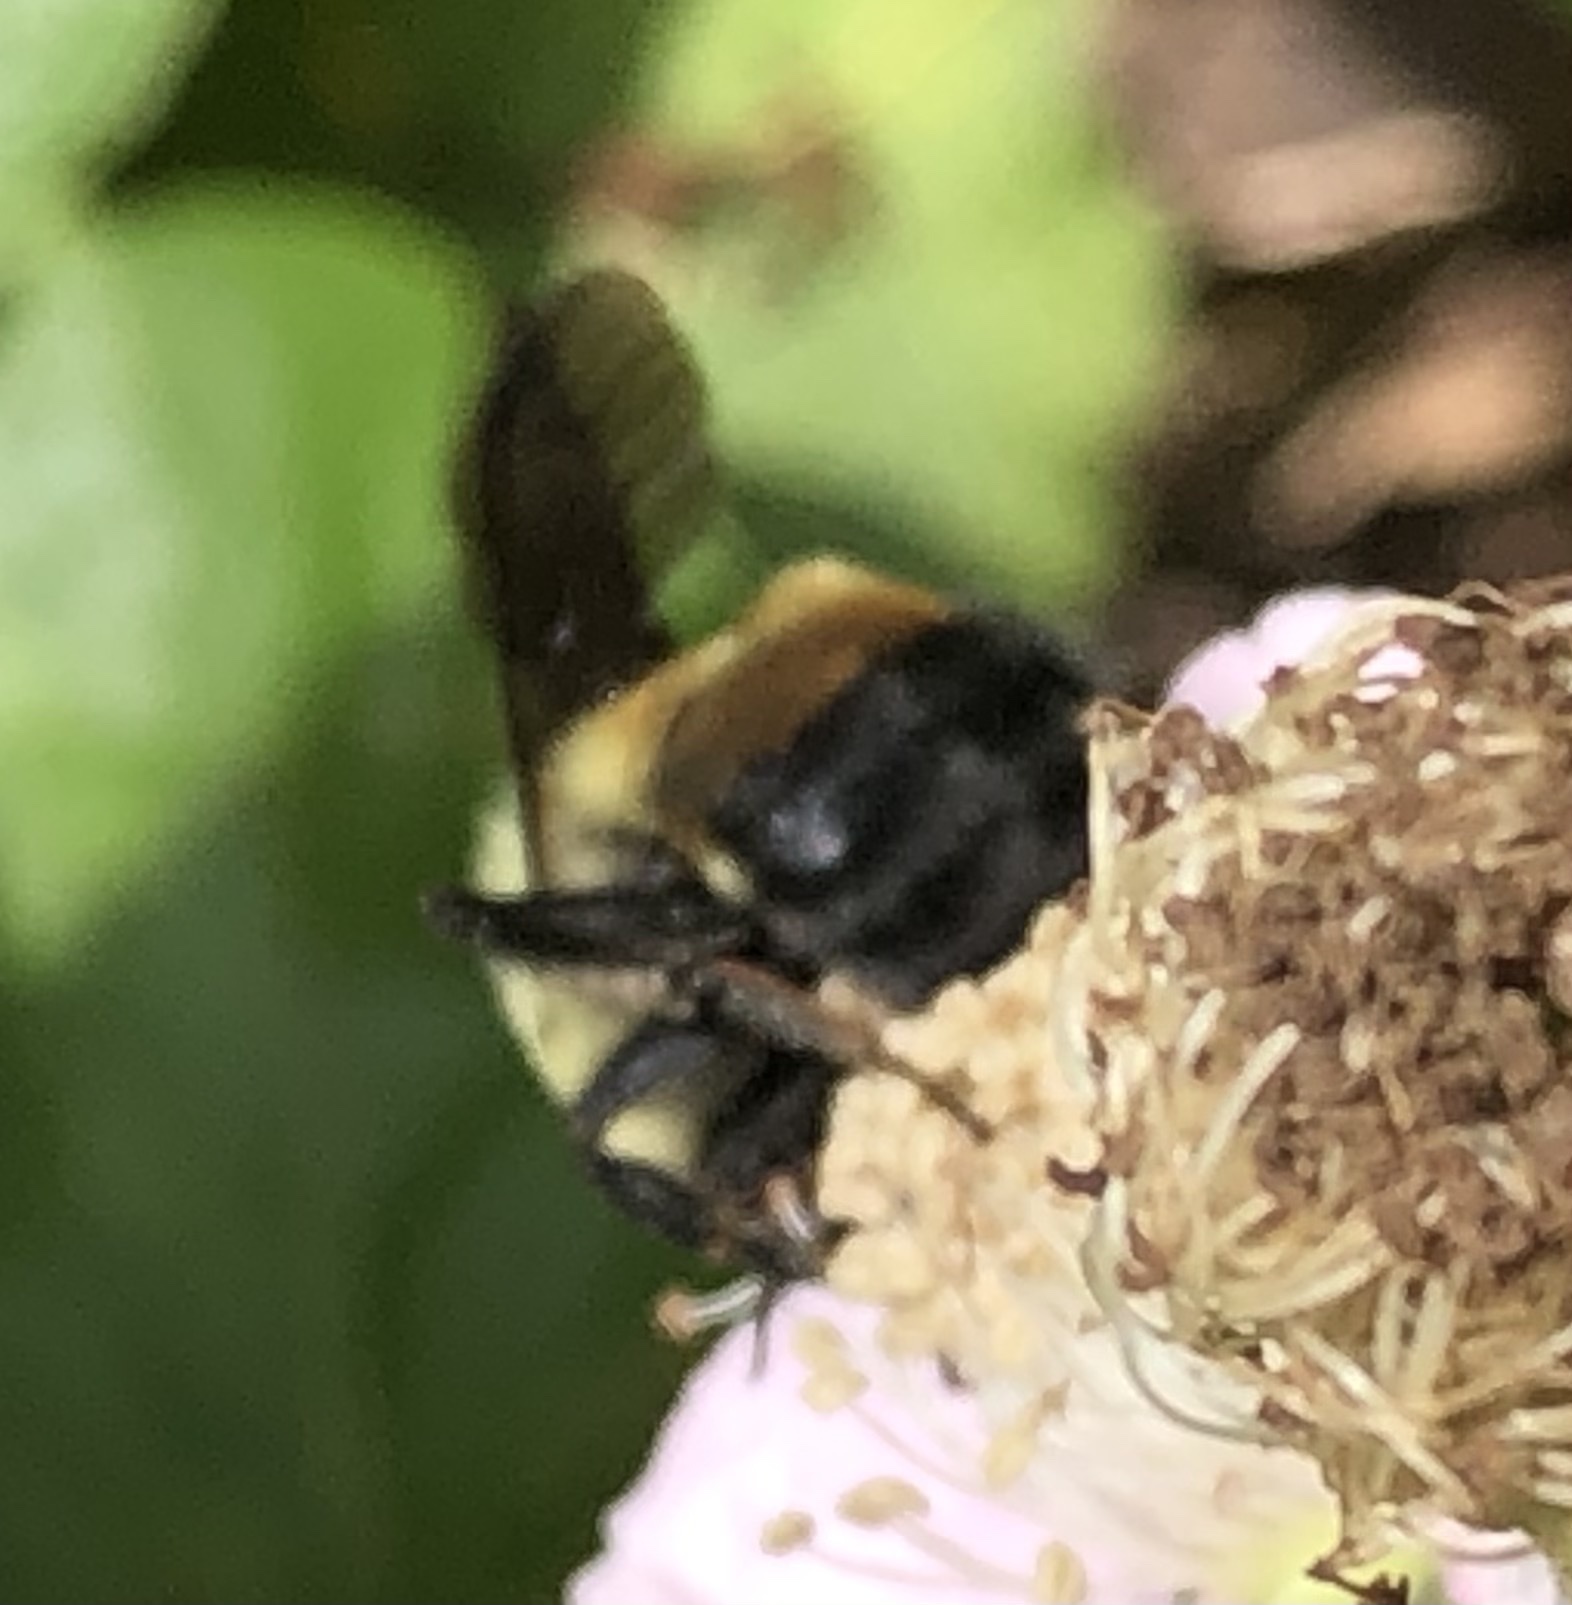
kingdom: Animalia
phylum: Arthropoda
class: Insecta
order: Hymenoptera
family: Apidae
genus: Bombus
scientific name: Bombus griseocollis
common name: Brown-belted bumble bee
